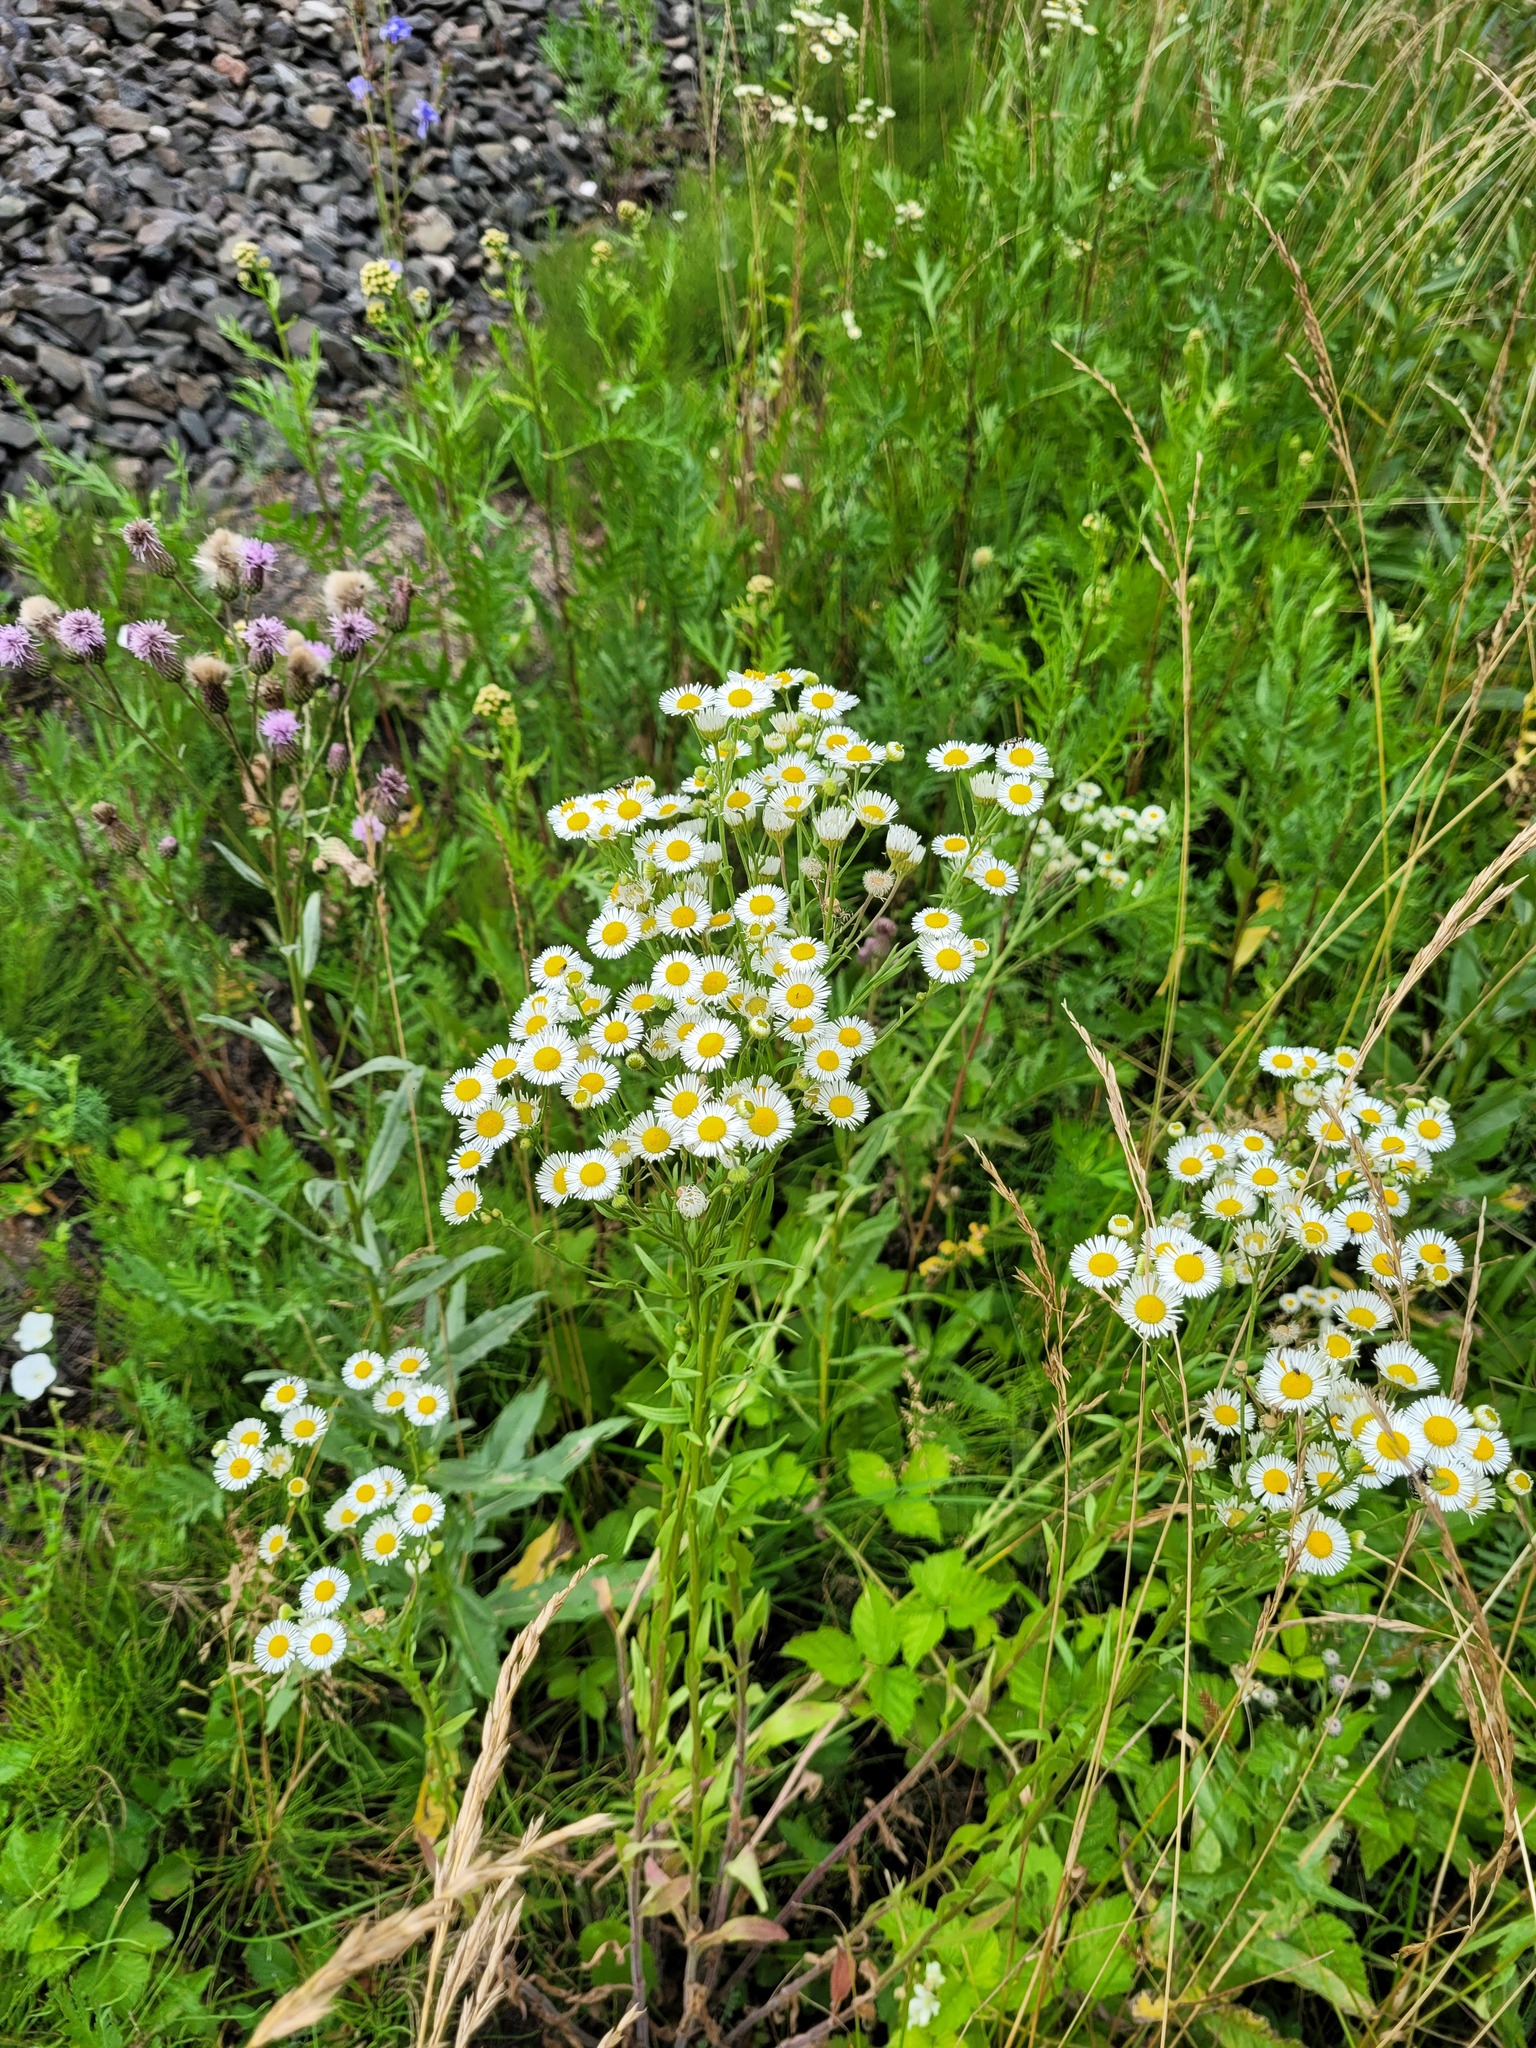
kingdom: Plantae
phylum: Tracheophyta
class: Magnoliopsida
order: Asterales
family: Asteraceae
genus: Erigeron
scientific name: Erigeron annuus
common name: Tall fleabane
